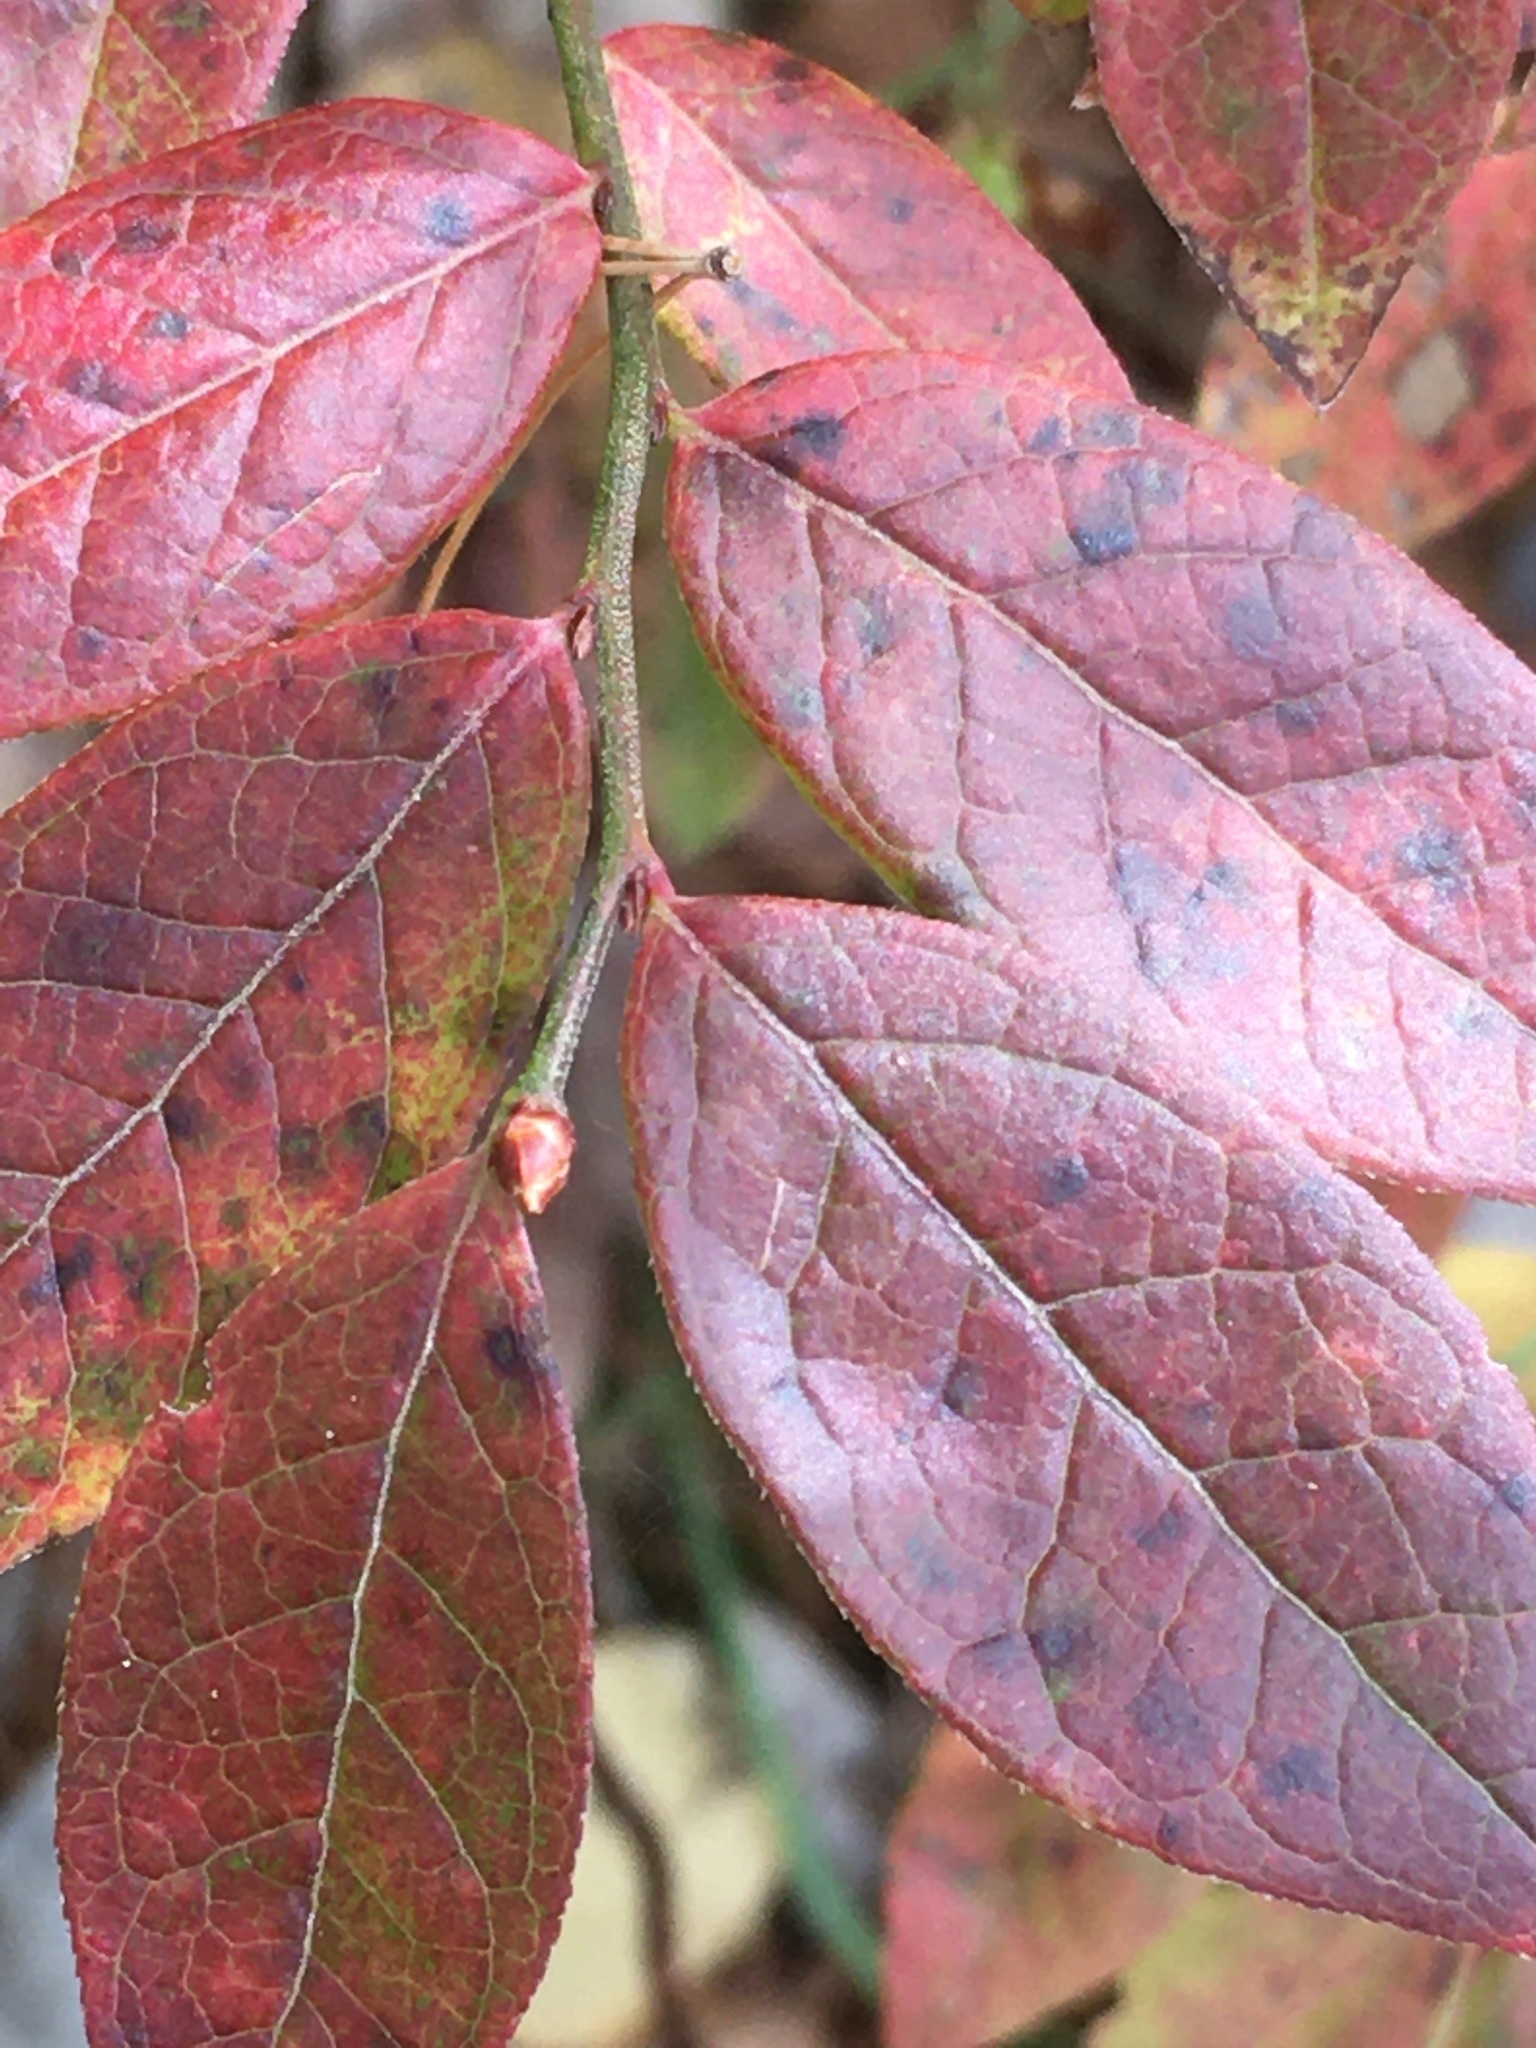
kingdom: Plantae
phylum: Tracheophyta
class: Magnoliopsida
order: Ericales
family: Ericaceae
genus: Vaccinium
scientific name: Vaccinium angustifolium
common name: Early lowbush blueberry
